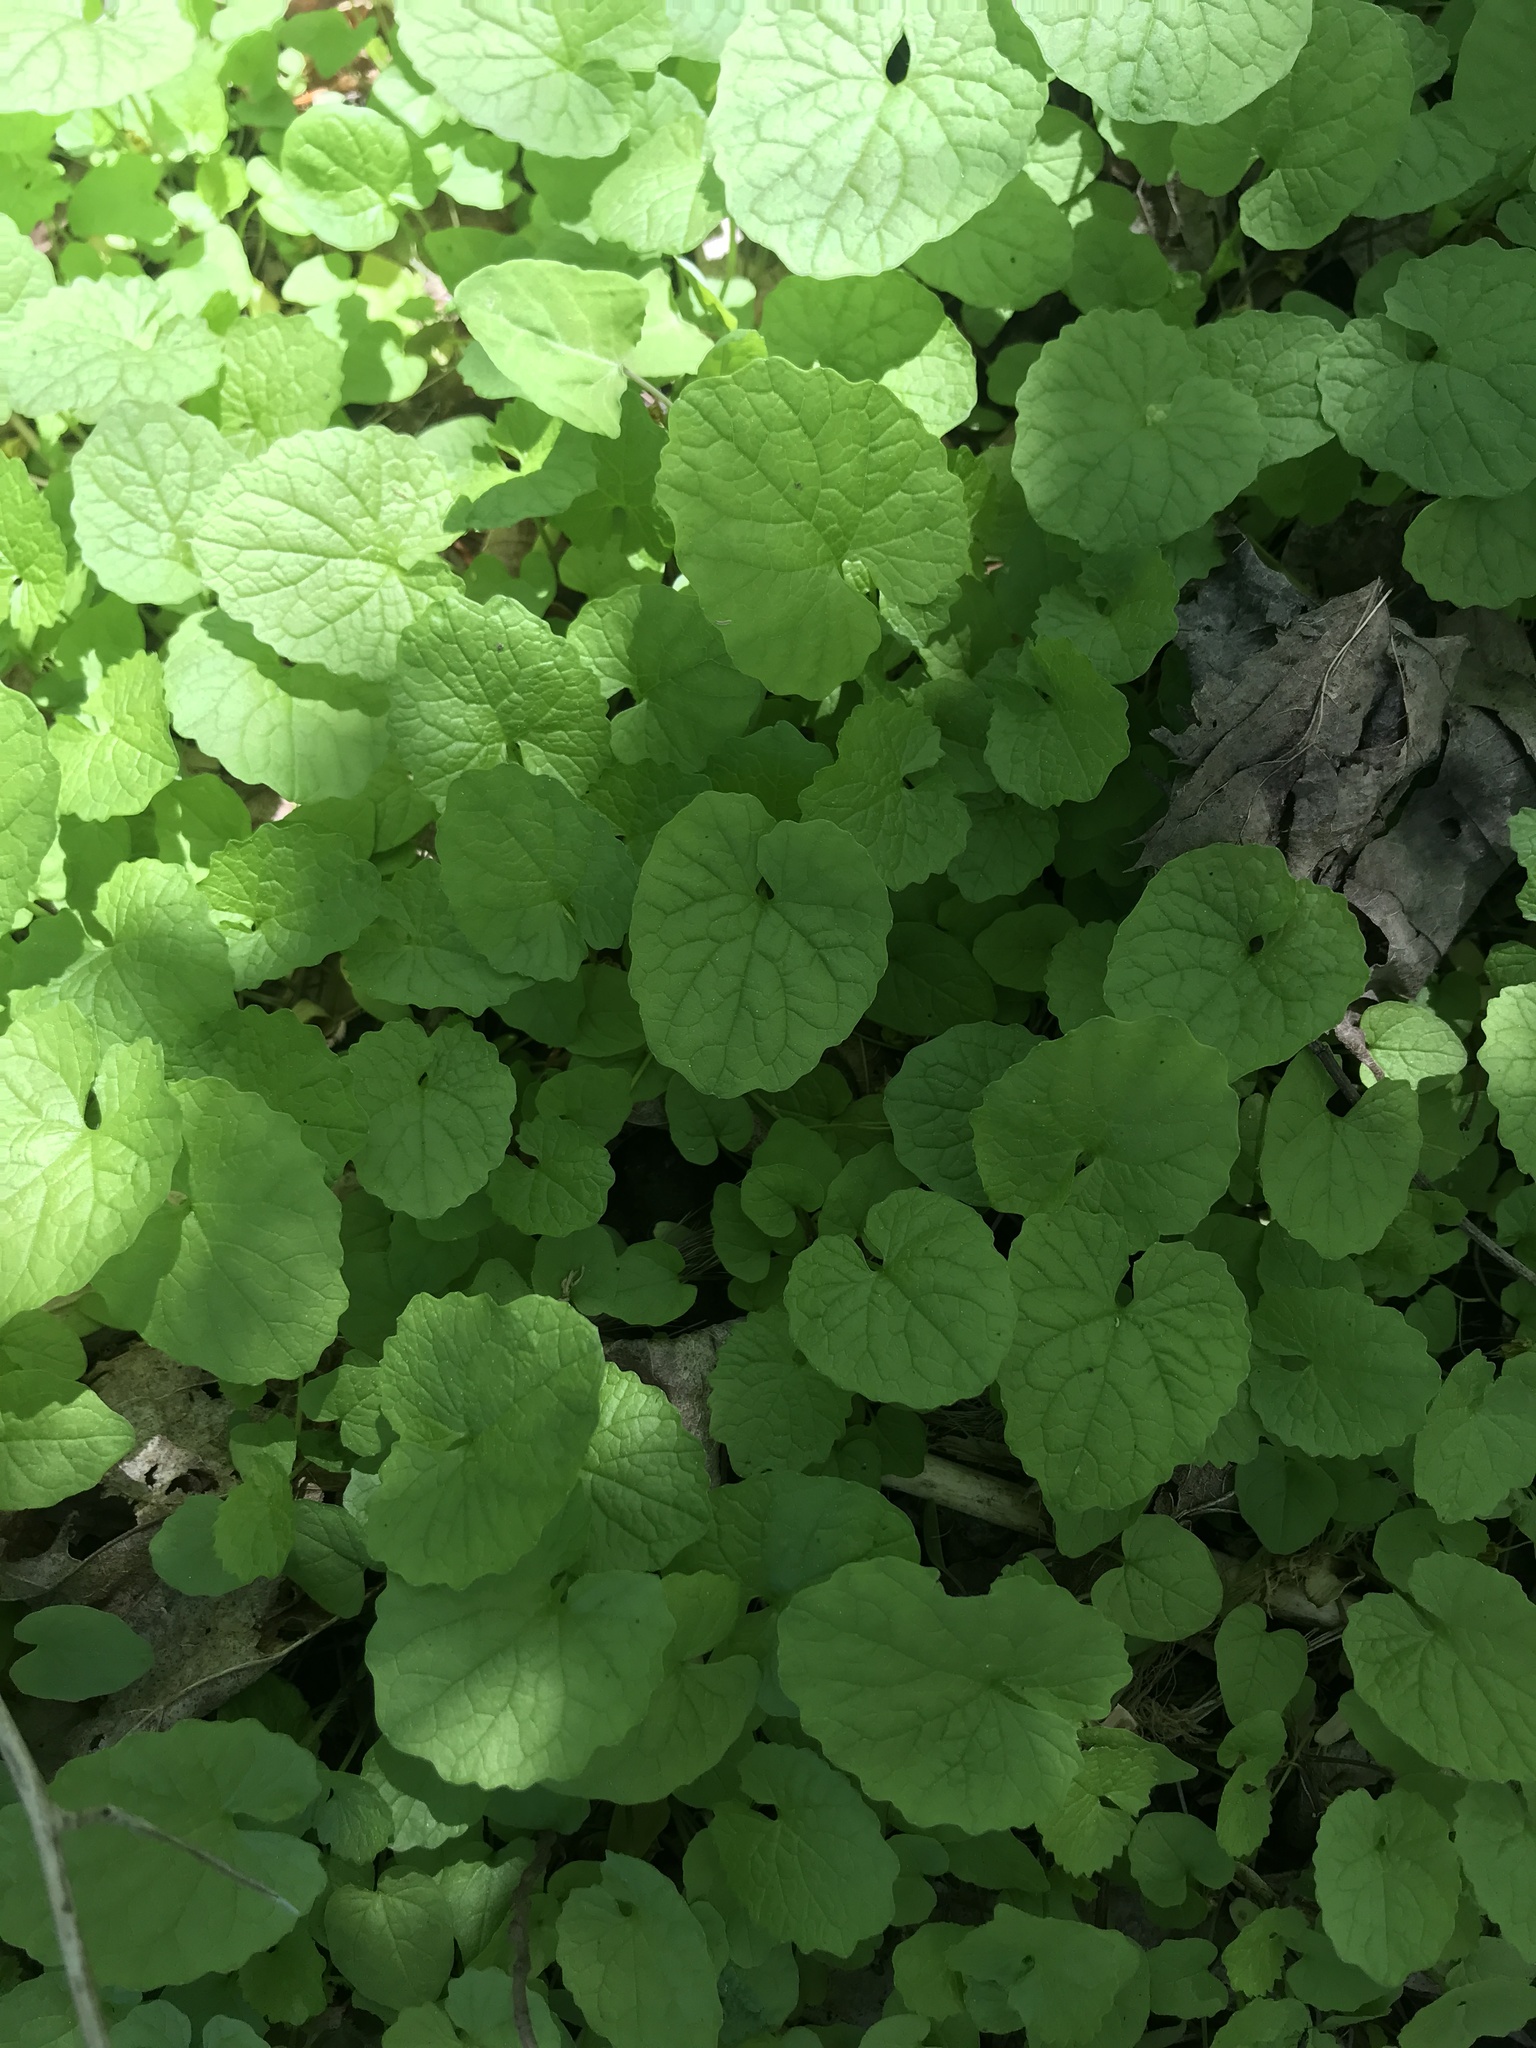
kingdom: Plantae
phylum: Tracheophyta
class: Magnoliopsida
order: Brassicales
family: Brassicaceae
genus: Alliaria
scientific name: Alliaria petiolata
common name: Garlic mustard
